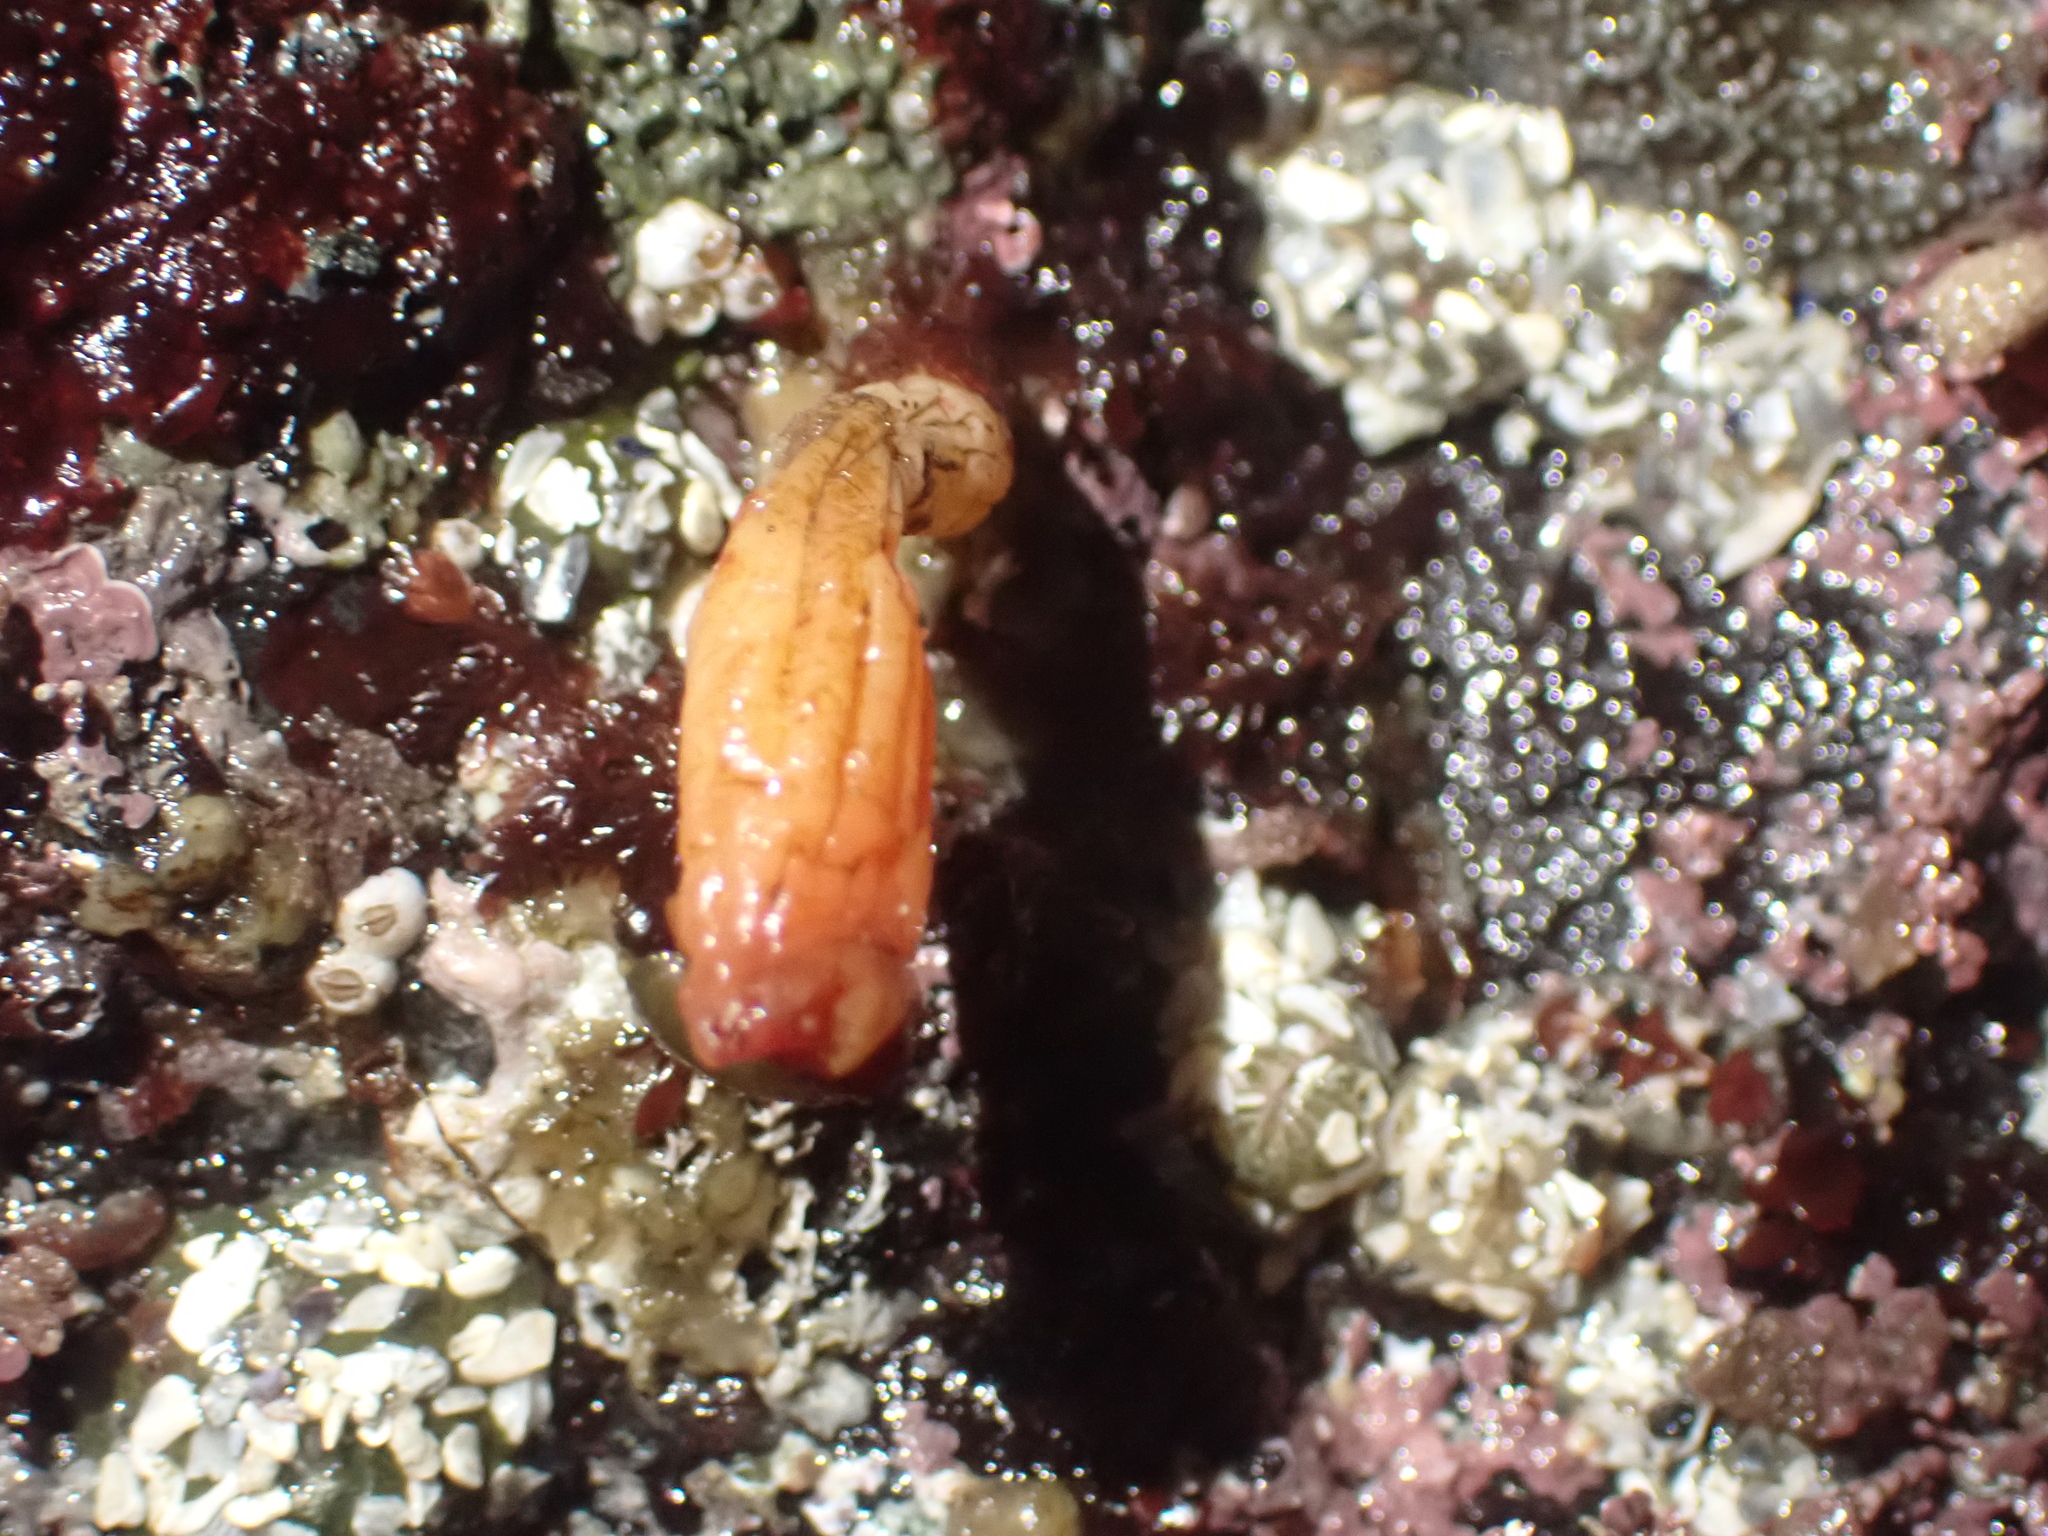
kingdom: Animalia
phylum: Chordata
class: Ascidiacea
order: Stolidobranchia
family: Styelidae
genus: Styela
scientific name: Styela montereyensis
